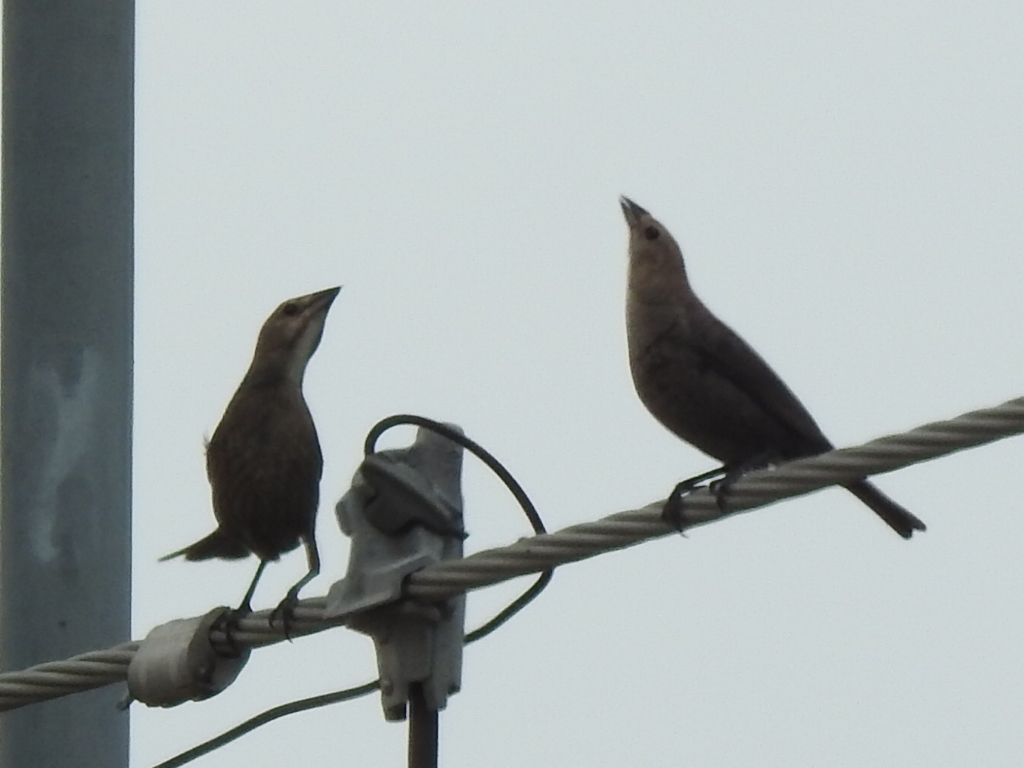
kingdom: Animalia
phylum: Chordata
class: Aves
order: Passeriformes
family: Icteridae
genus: Molothrus
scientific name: Molothrus ater
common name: Brown-headed cowbird
